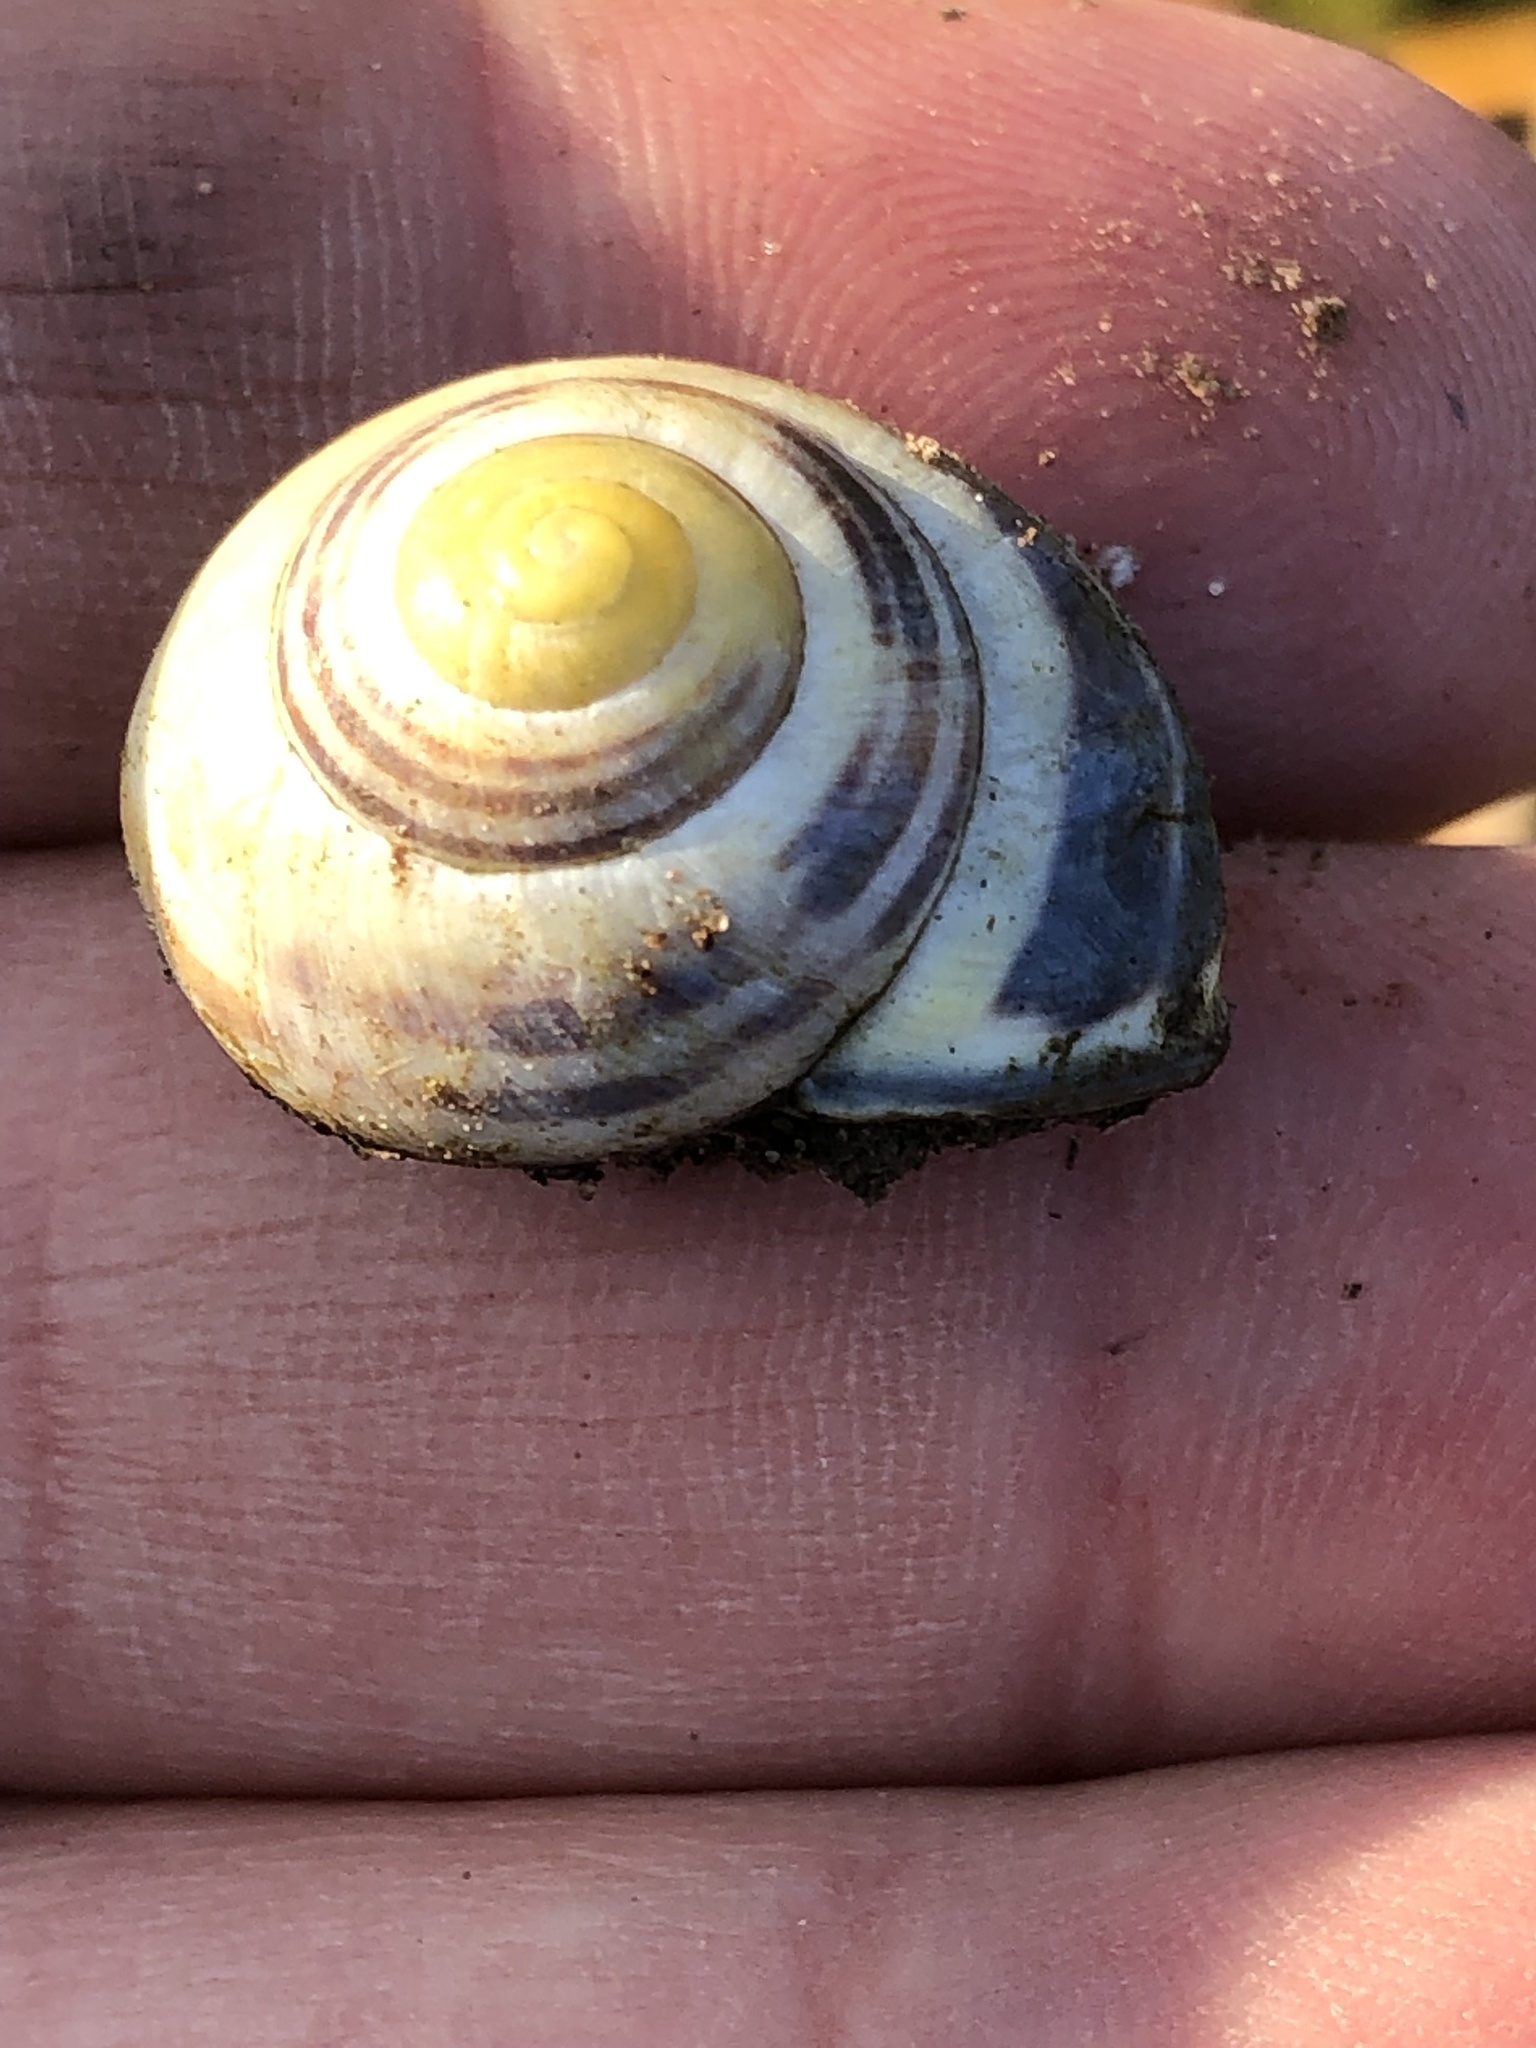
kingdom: Animalia
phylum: Mollusca
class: Gastropoda
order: Stylommatophora
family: Helicidae
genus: Cepaea
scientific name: Cepaea nemoralis
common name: Grovesnail
